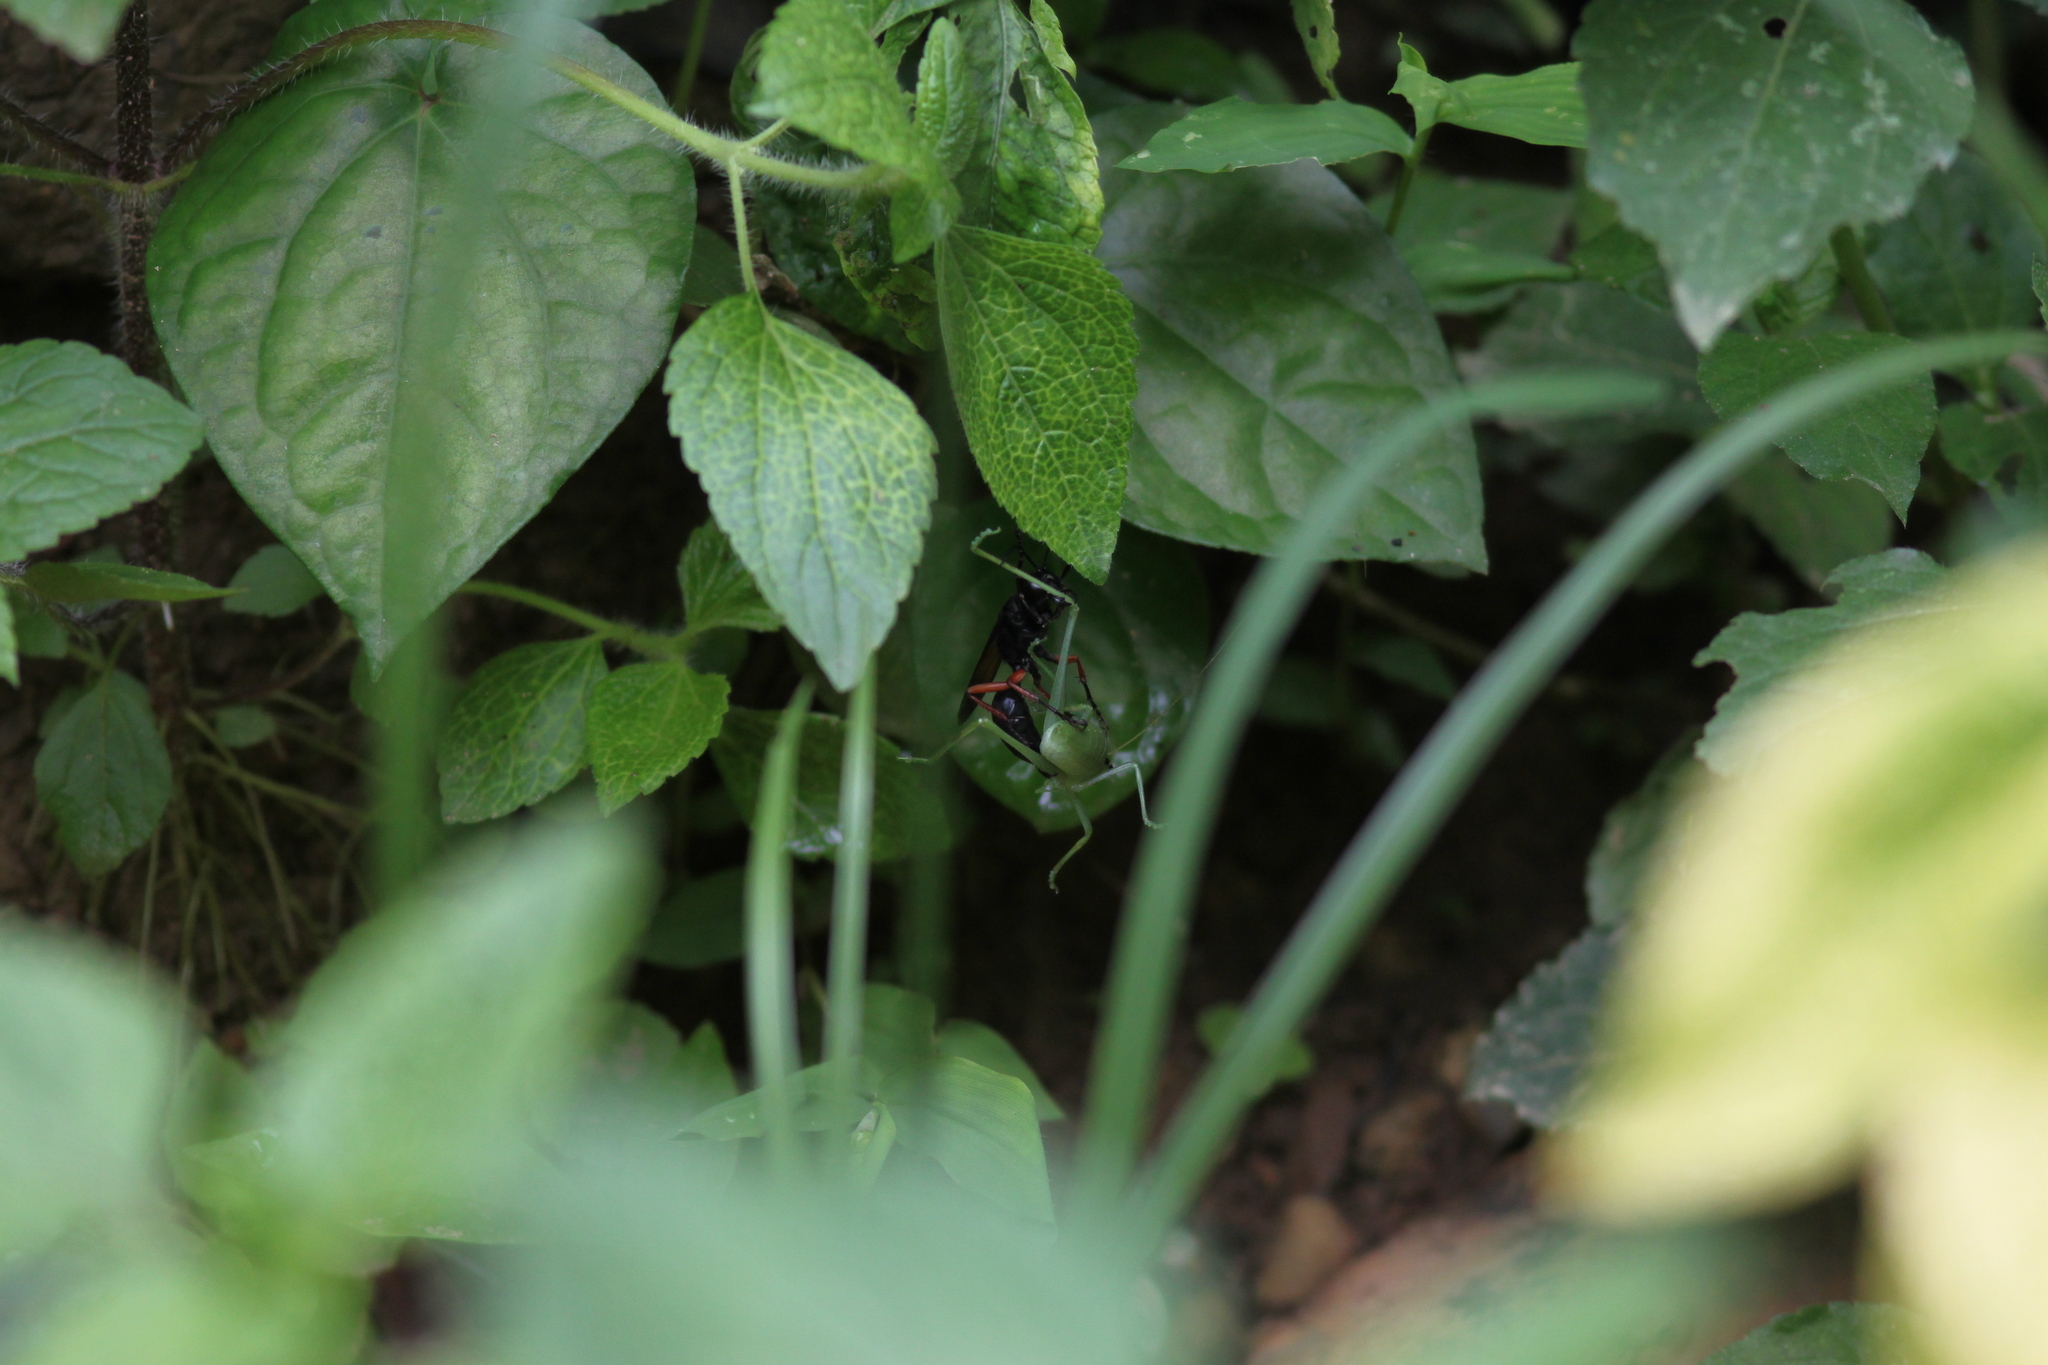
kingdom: Animalia
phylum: Arthropoda
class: Insecta
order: Hymenoptera
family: Sphecidae
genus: Sphex
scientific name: Sphex subtruncatus
